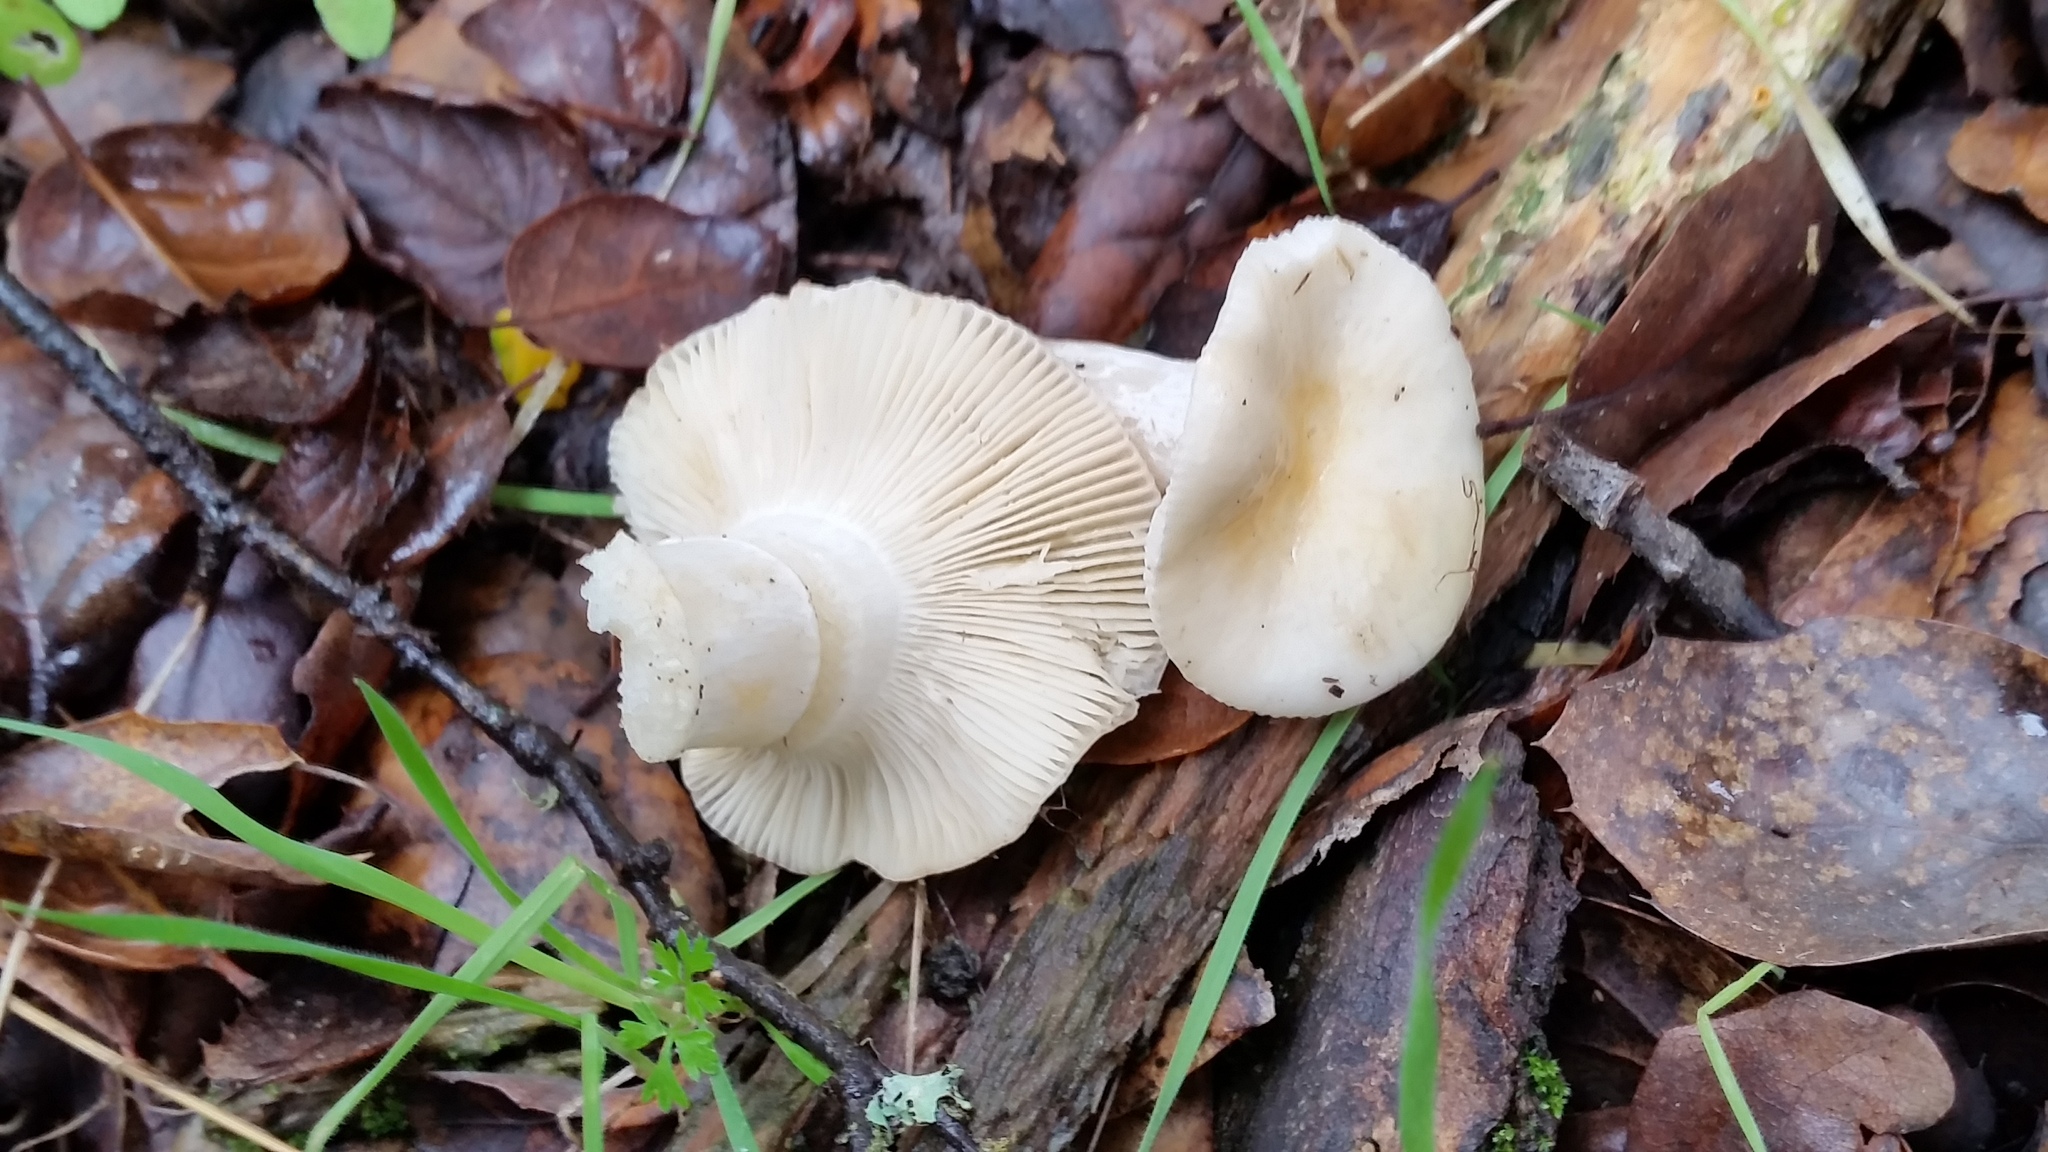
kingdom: Fungi
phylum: Basidiomycota
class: Agaricomycetes
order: Agaricales
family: Hygrophoraceae
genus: Hygrophorus
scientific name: Hygrophorus eburneus
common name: Ivory wax-cap
